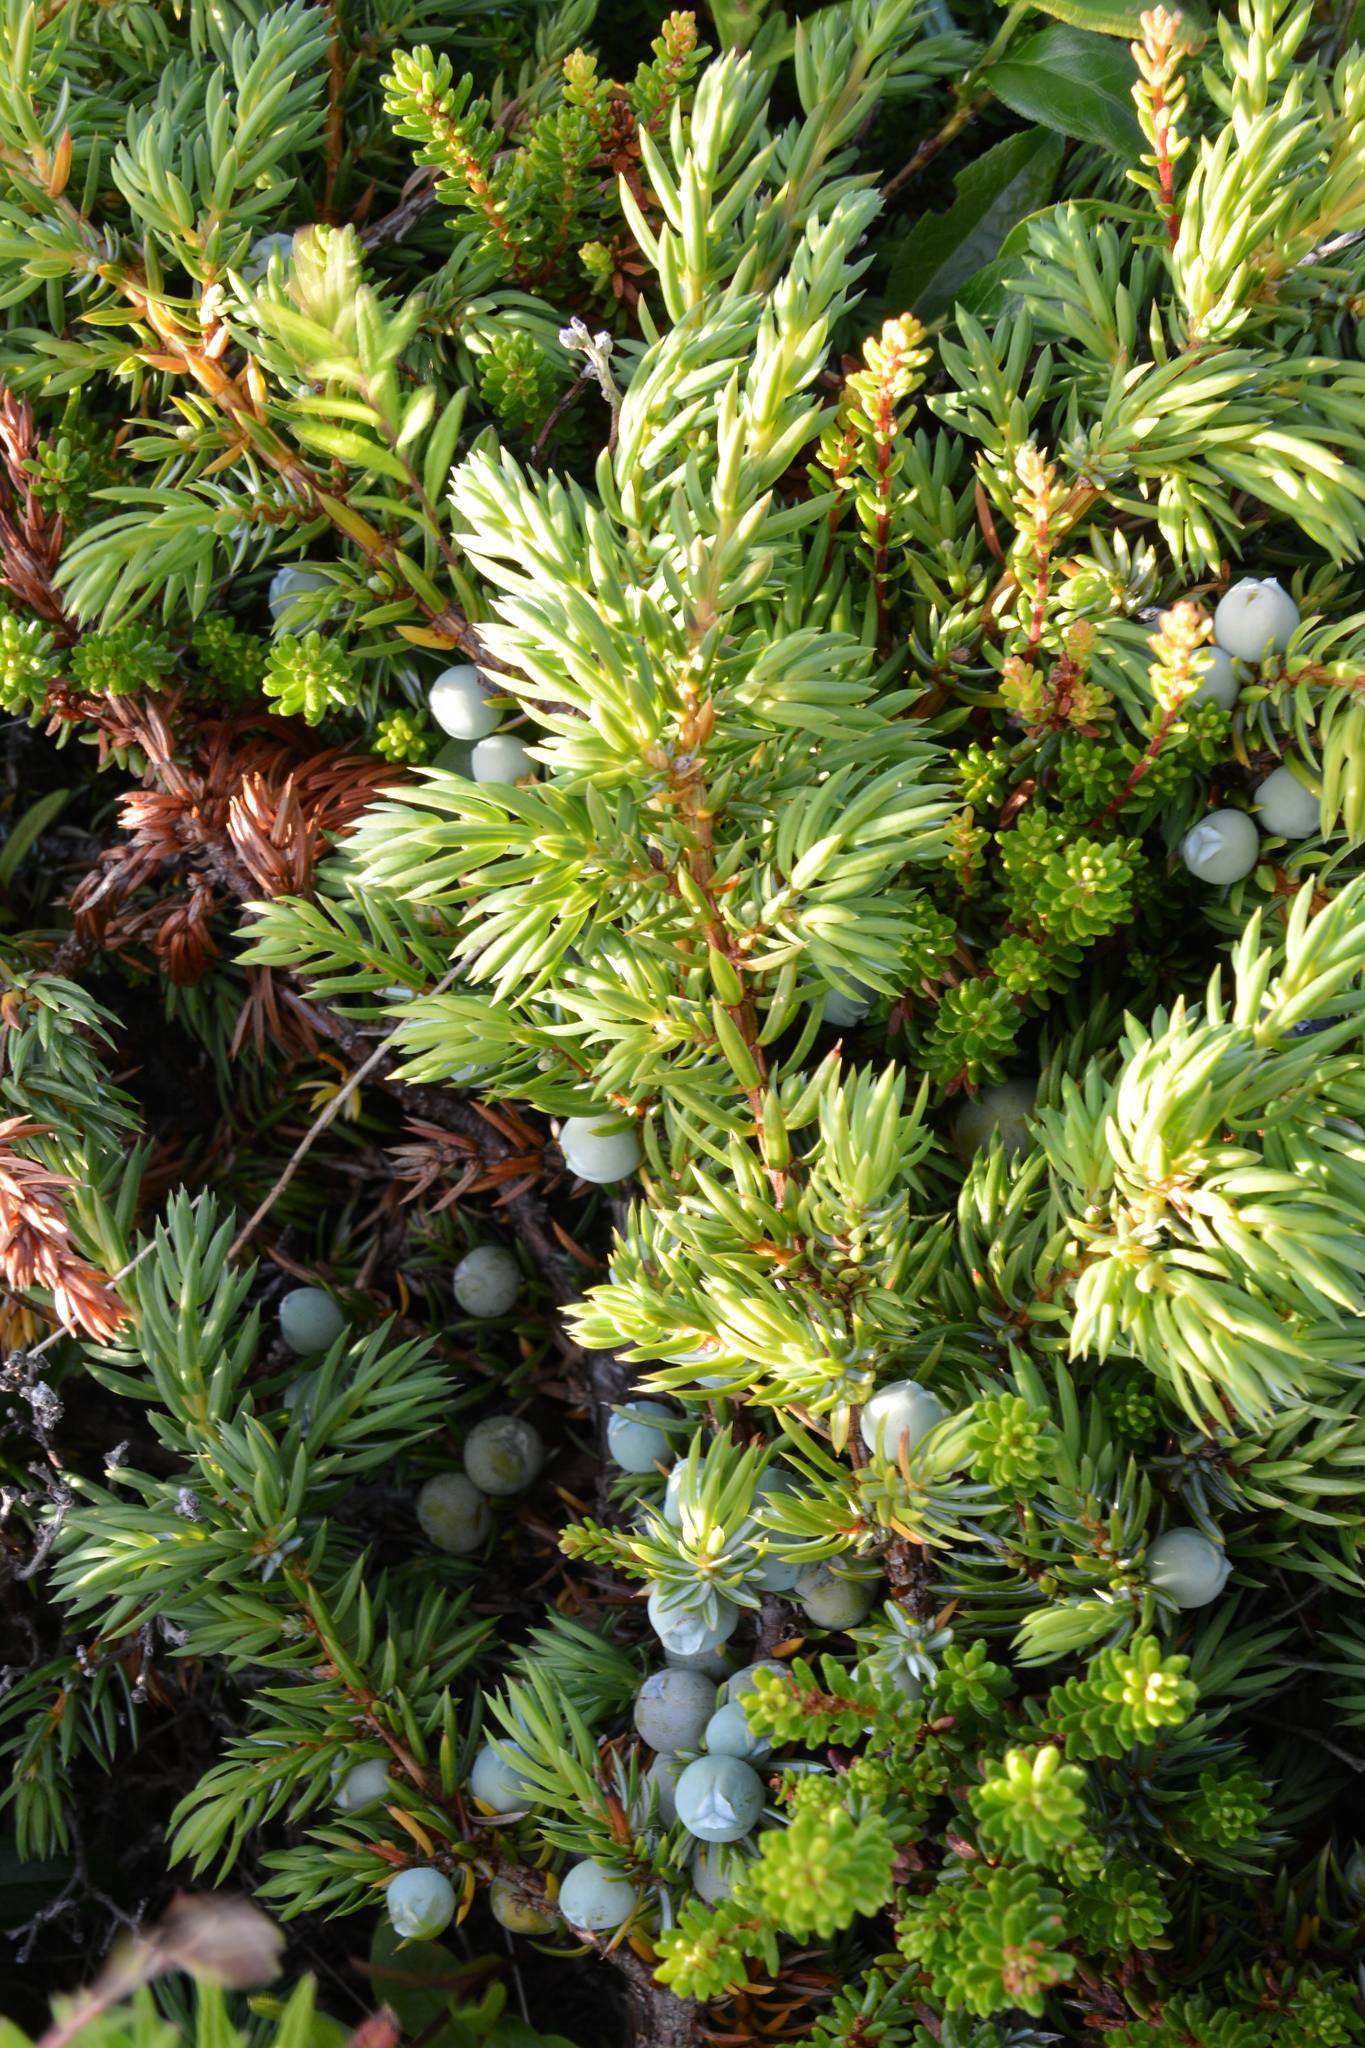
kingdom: Plantae
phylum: Tracheophyta
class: Pinopsida
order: Pinales
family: Cupressaceae
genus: Juniperus
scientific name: Juniperus communis
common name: Common juniper
